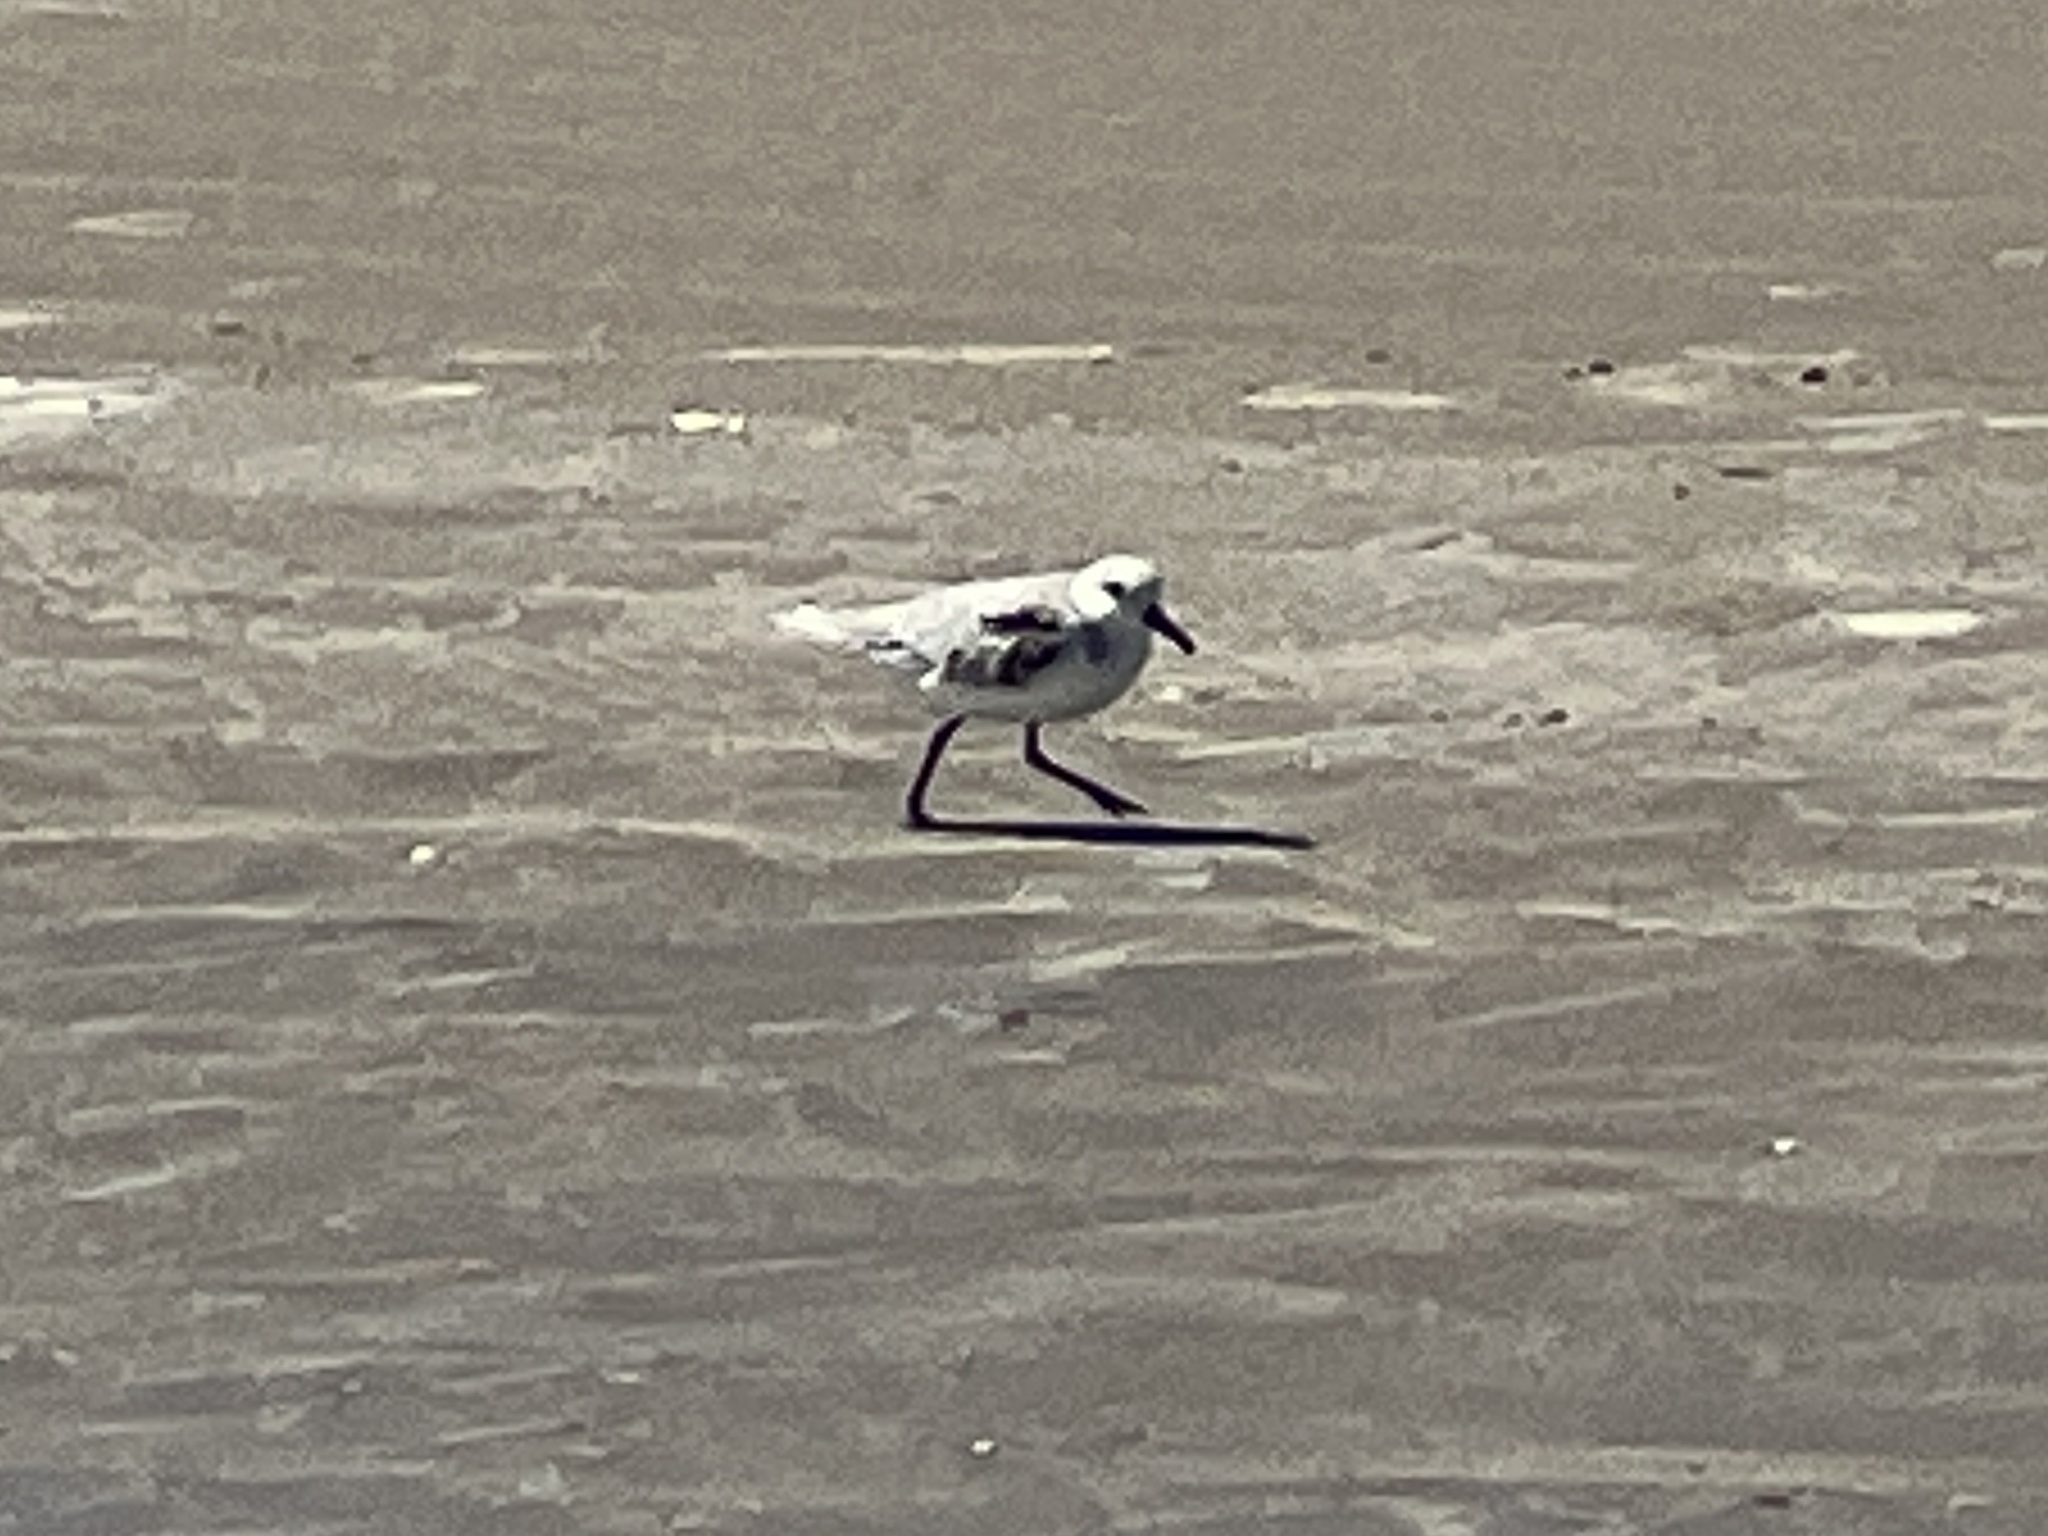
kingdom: Animalia
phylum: Chordata
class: Aves
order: Charadriiformes
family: Scolopacidae
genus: Calidris
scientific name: Calidris alba
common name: Sanderling
